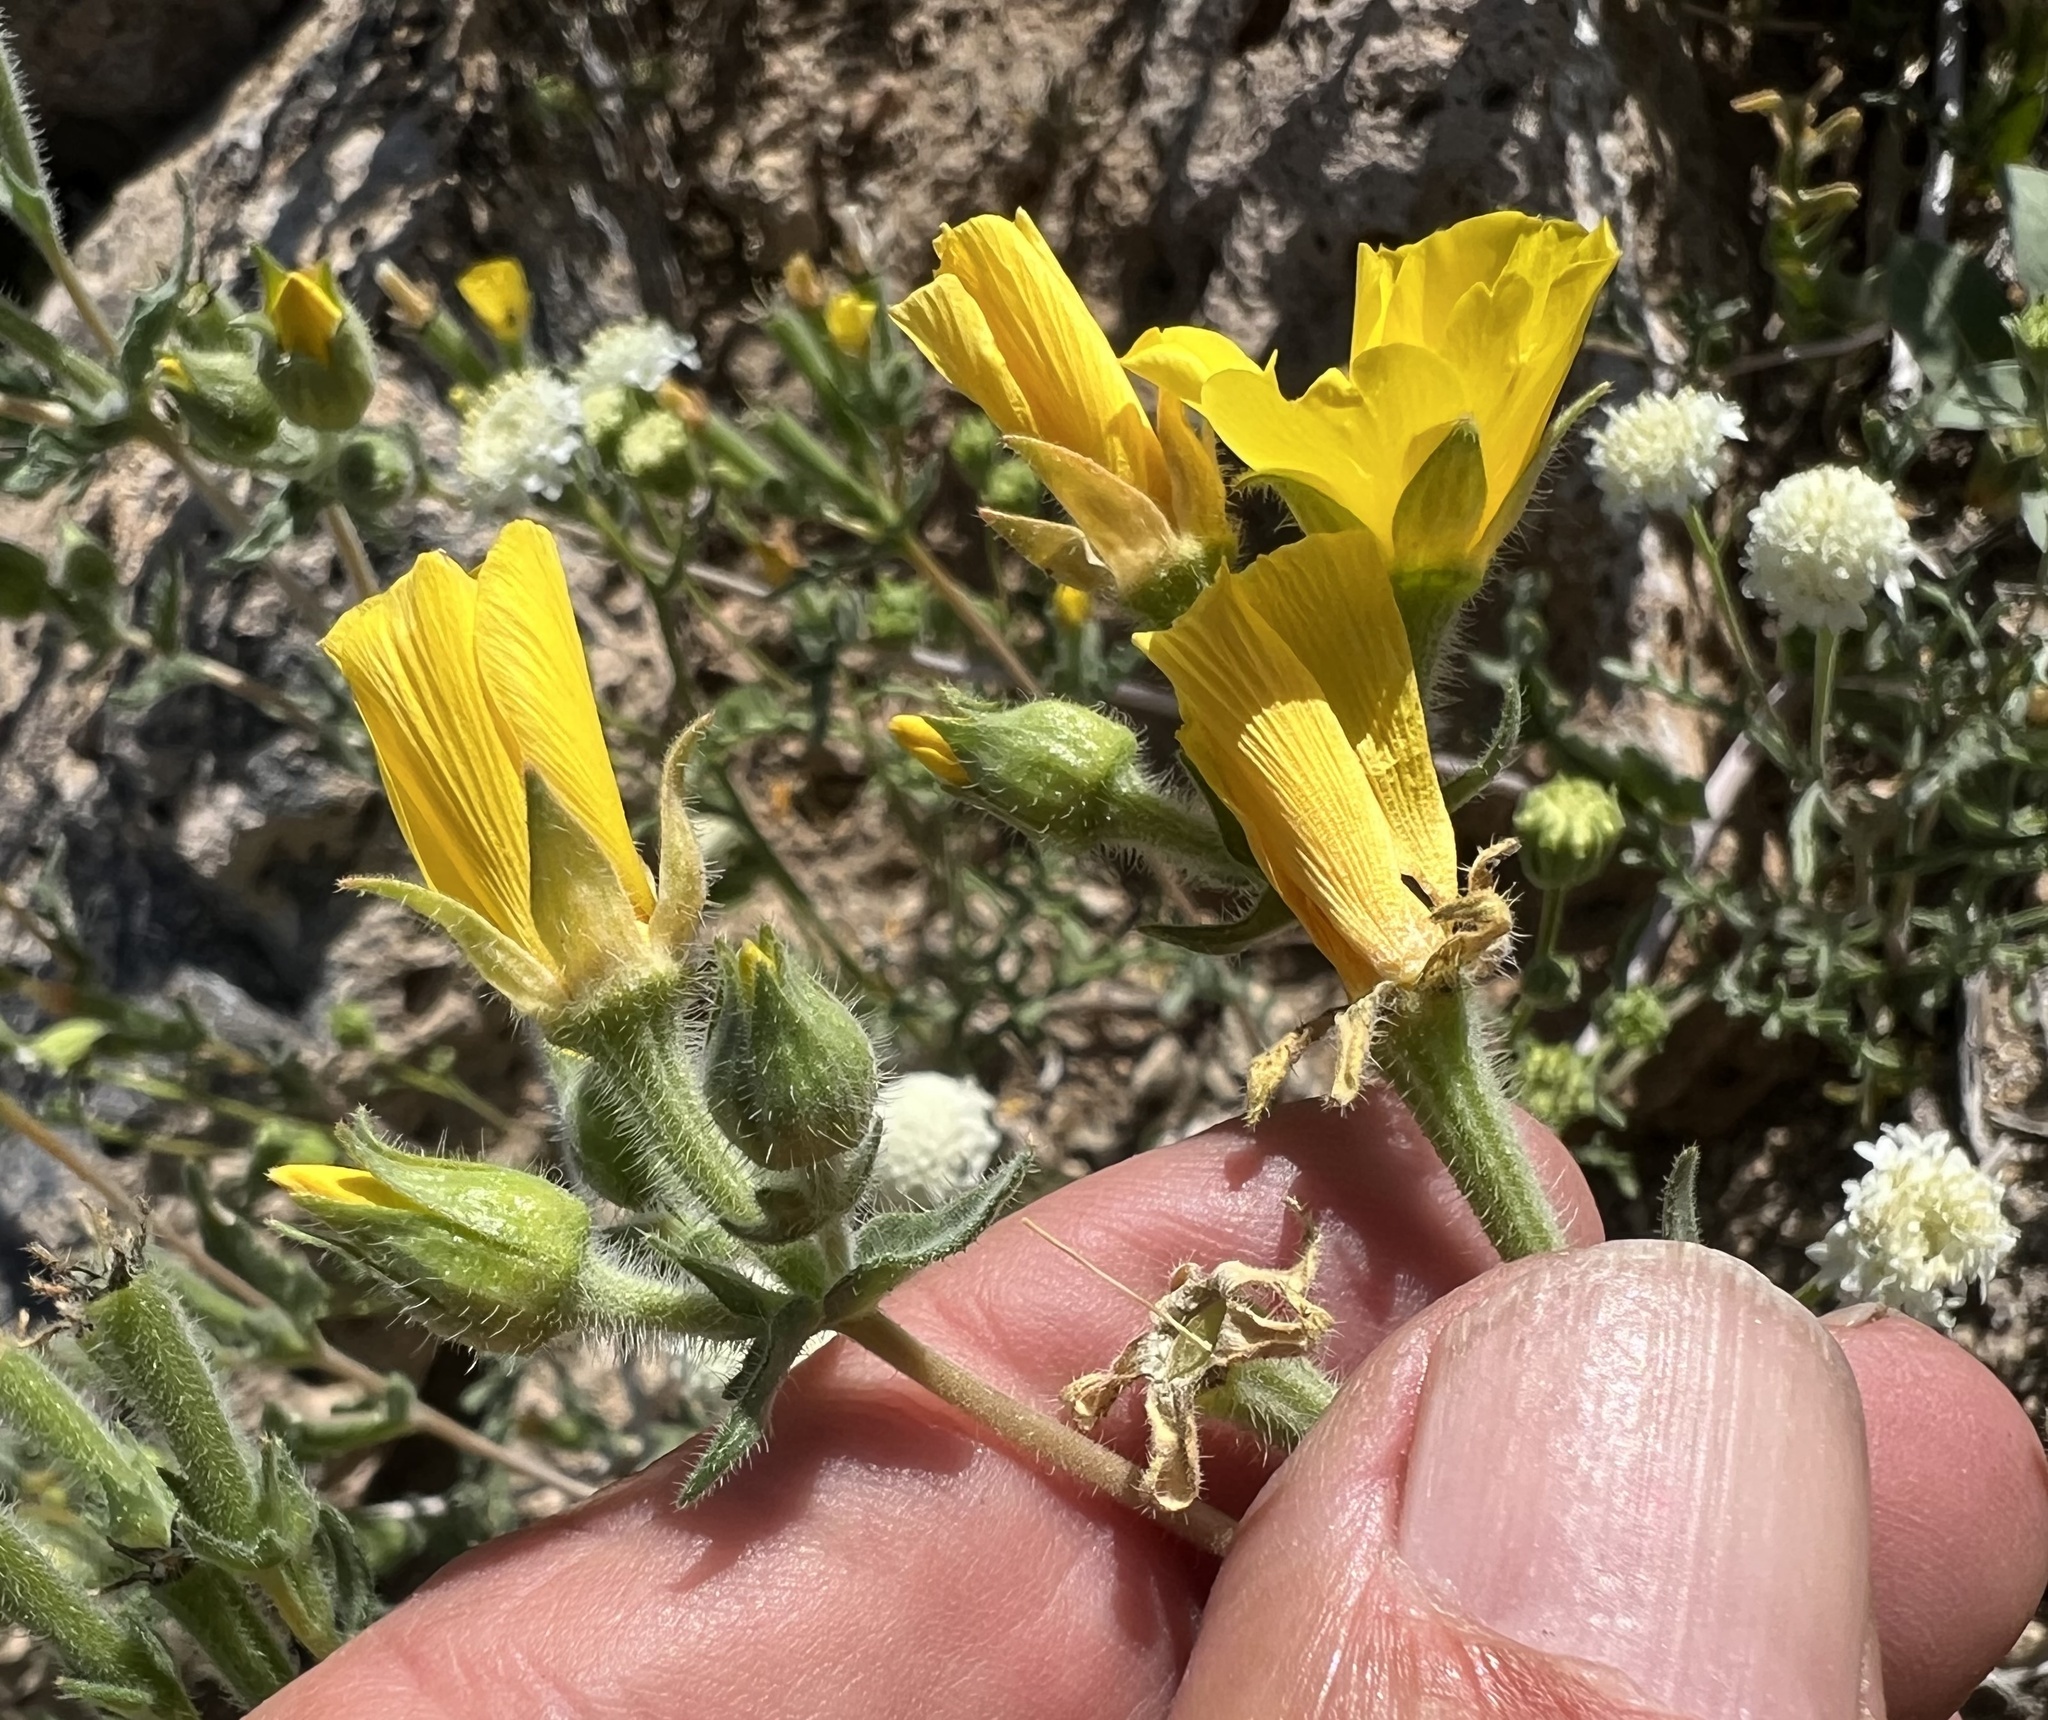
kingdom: Plantae
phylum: Tracheophyta
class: Magnoliopsida
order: Cornales
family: Loasaceae
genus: Mentzelia
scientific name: Mentzelia nitens
